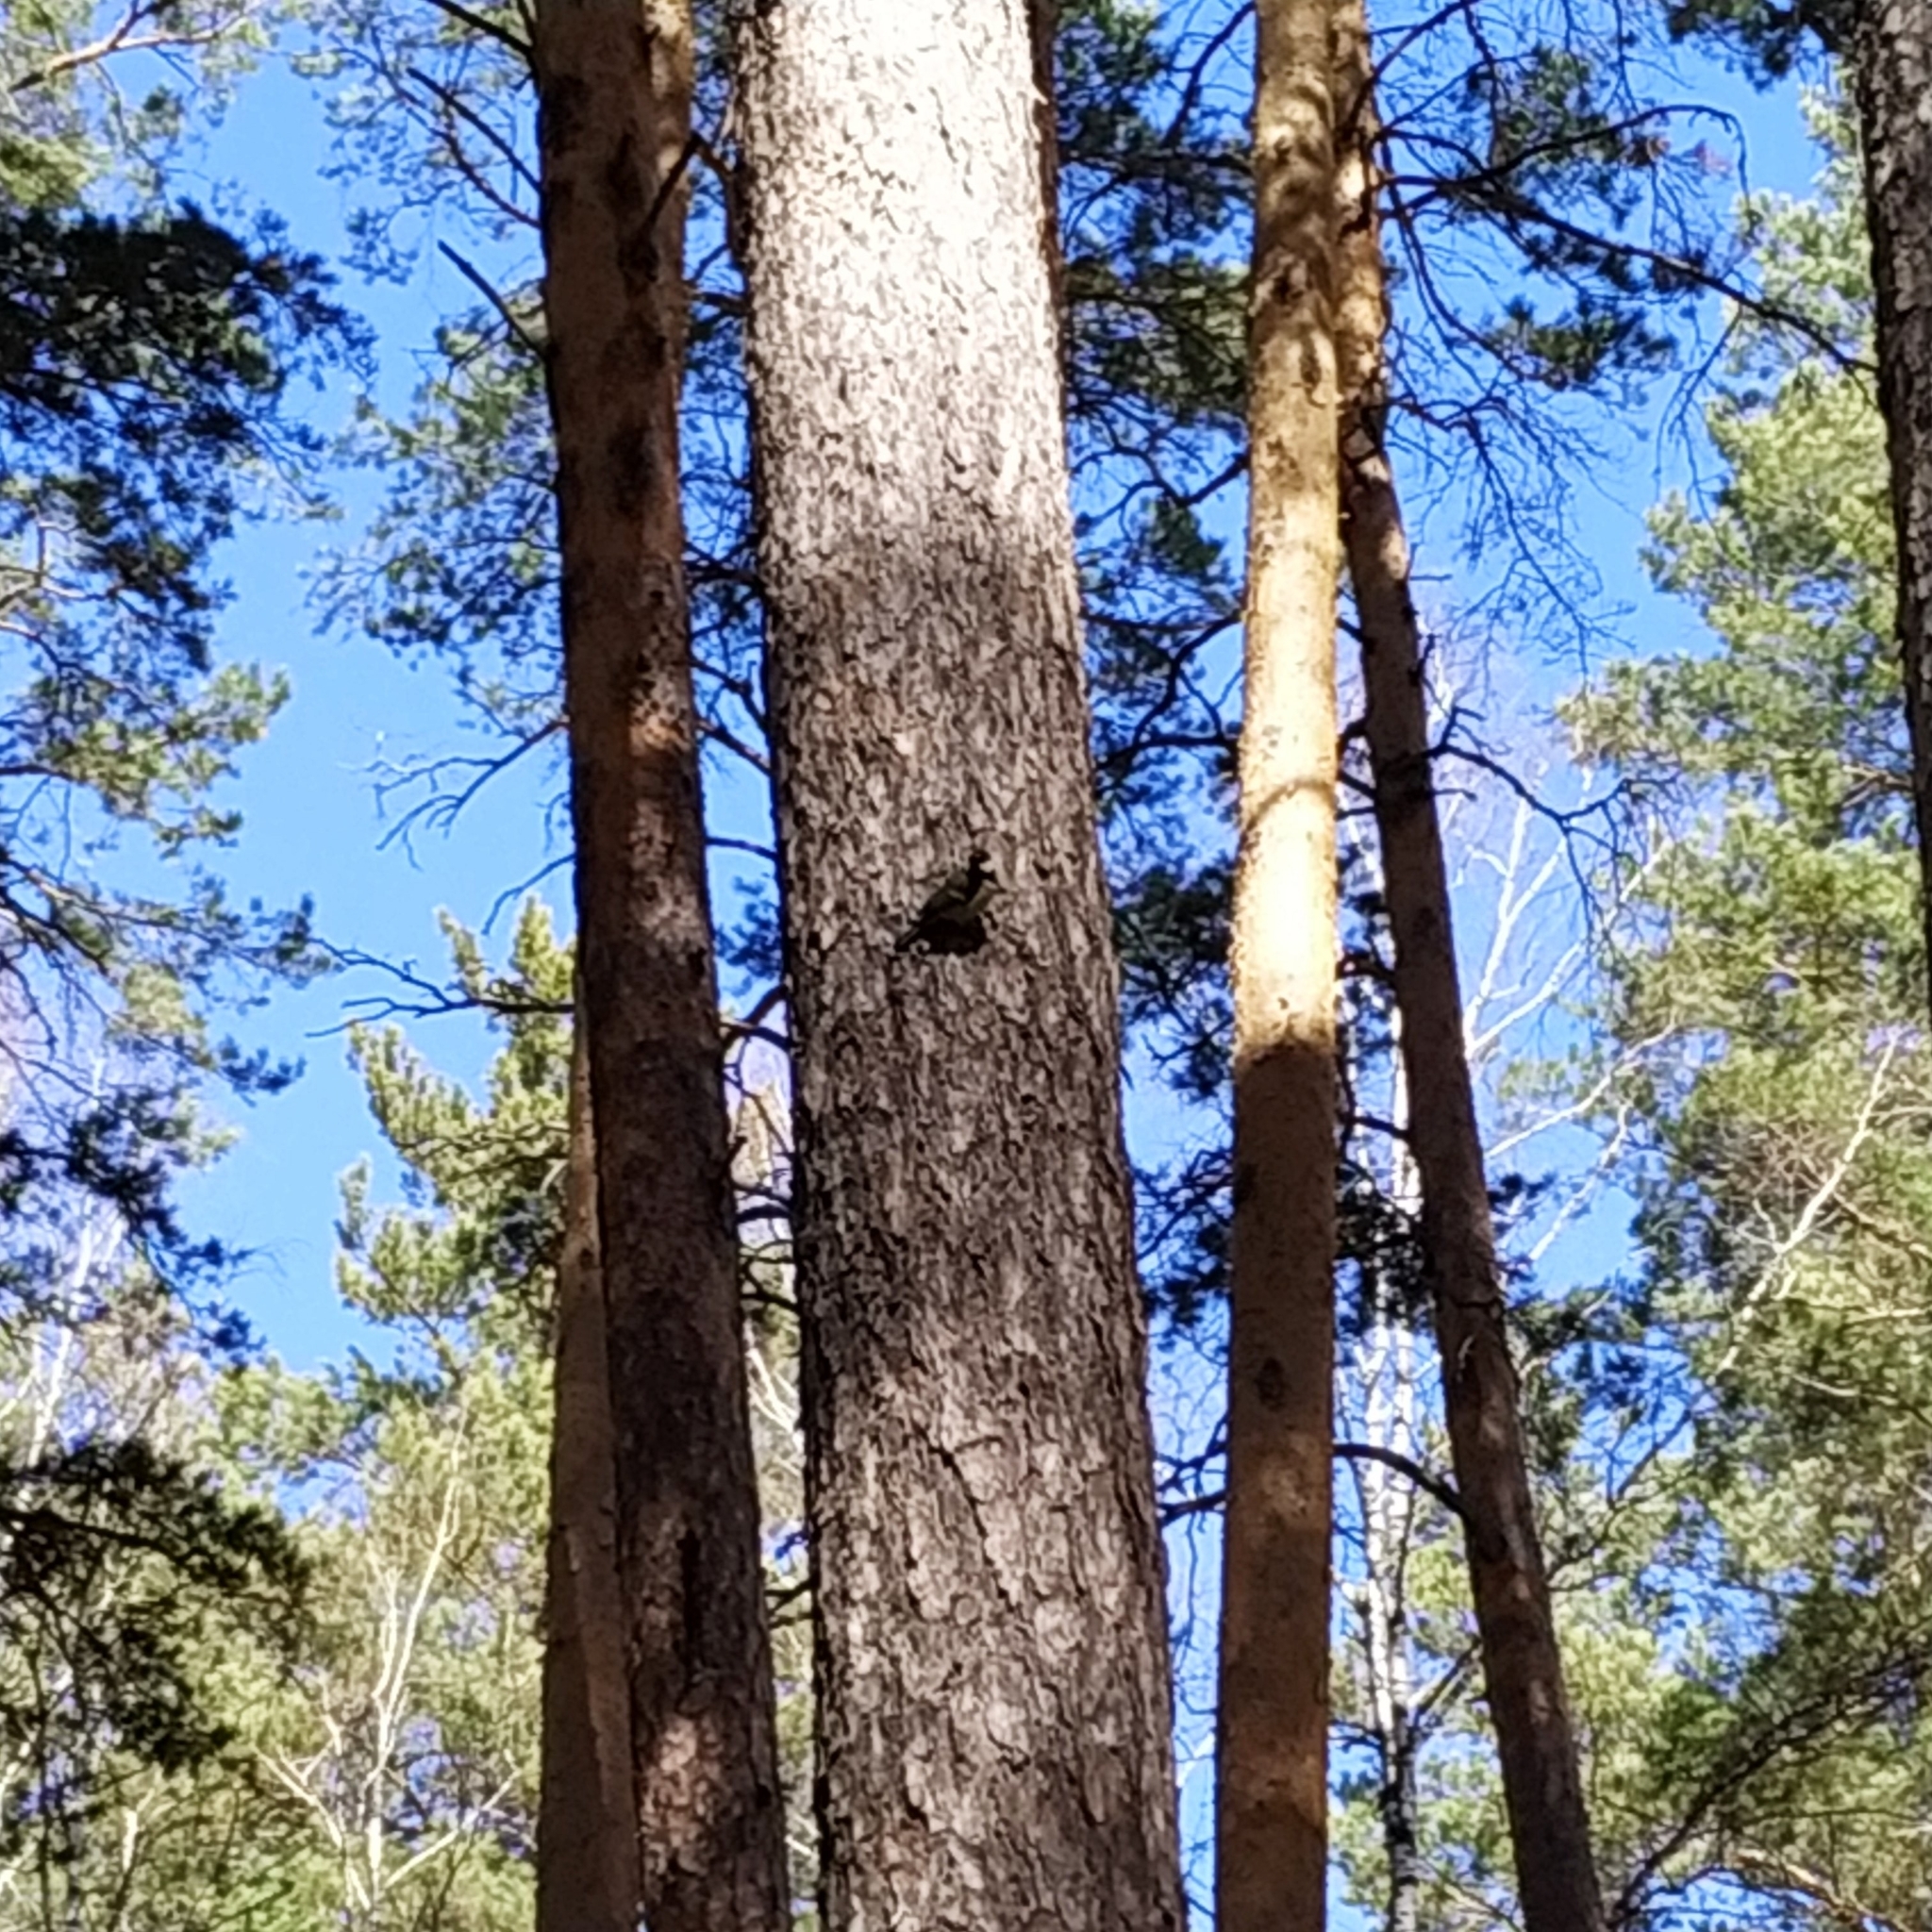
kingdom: Animalia
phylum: Chordata
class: Aves
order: Passeriformes
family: Paridae
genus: Parus
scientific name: Parus major
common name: Great tit
